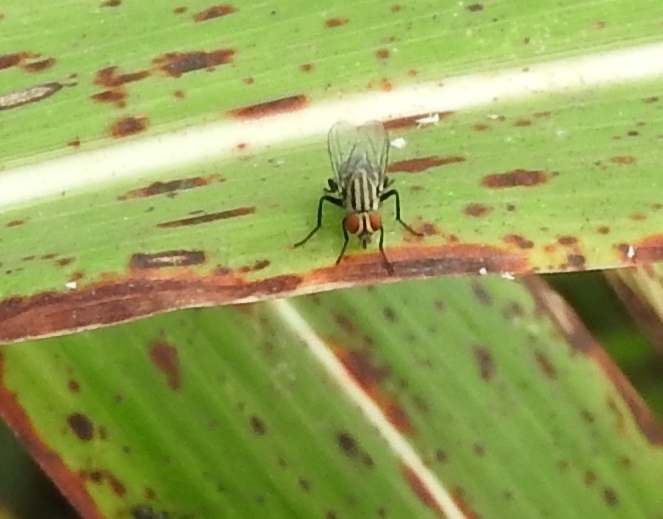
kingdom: Animalia
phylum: Arthropoda
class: Insecta
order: Diptera
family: Sarcophagidae
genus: Sarcophaga
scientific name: Sarcophaga
